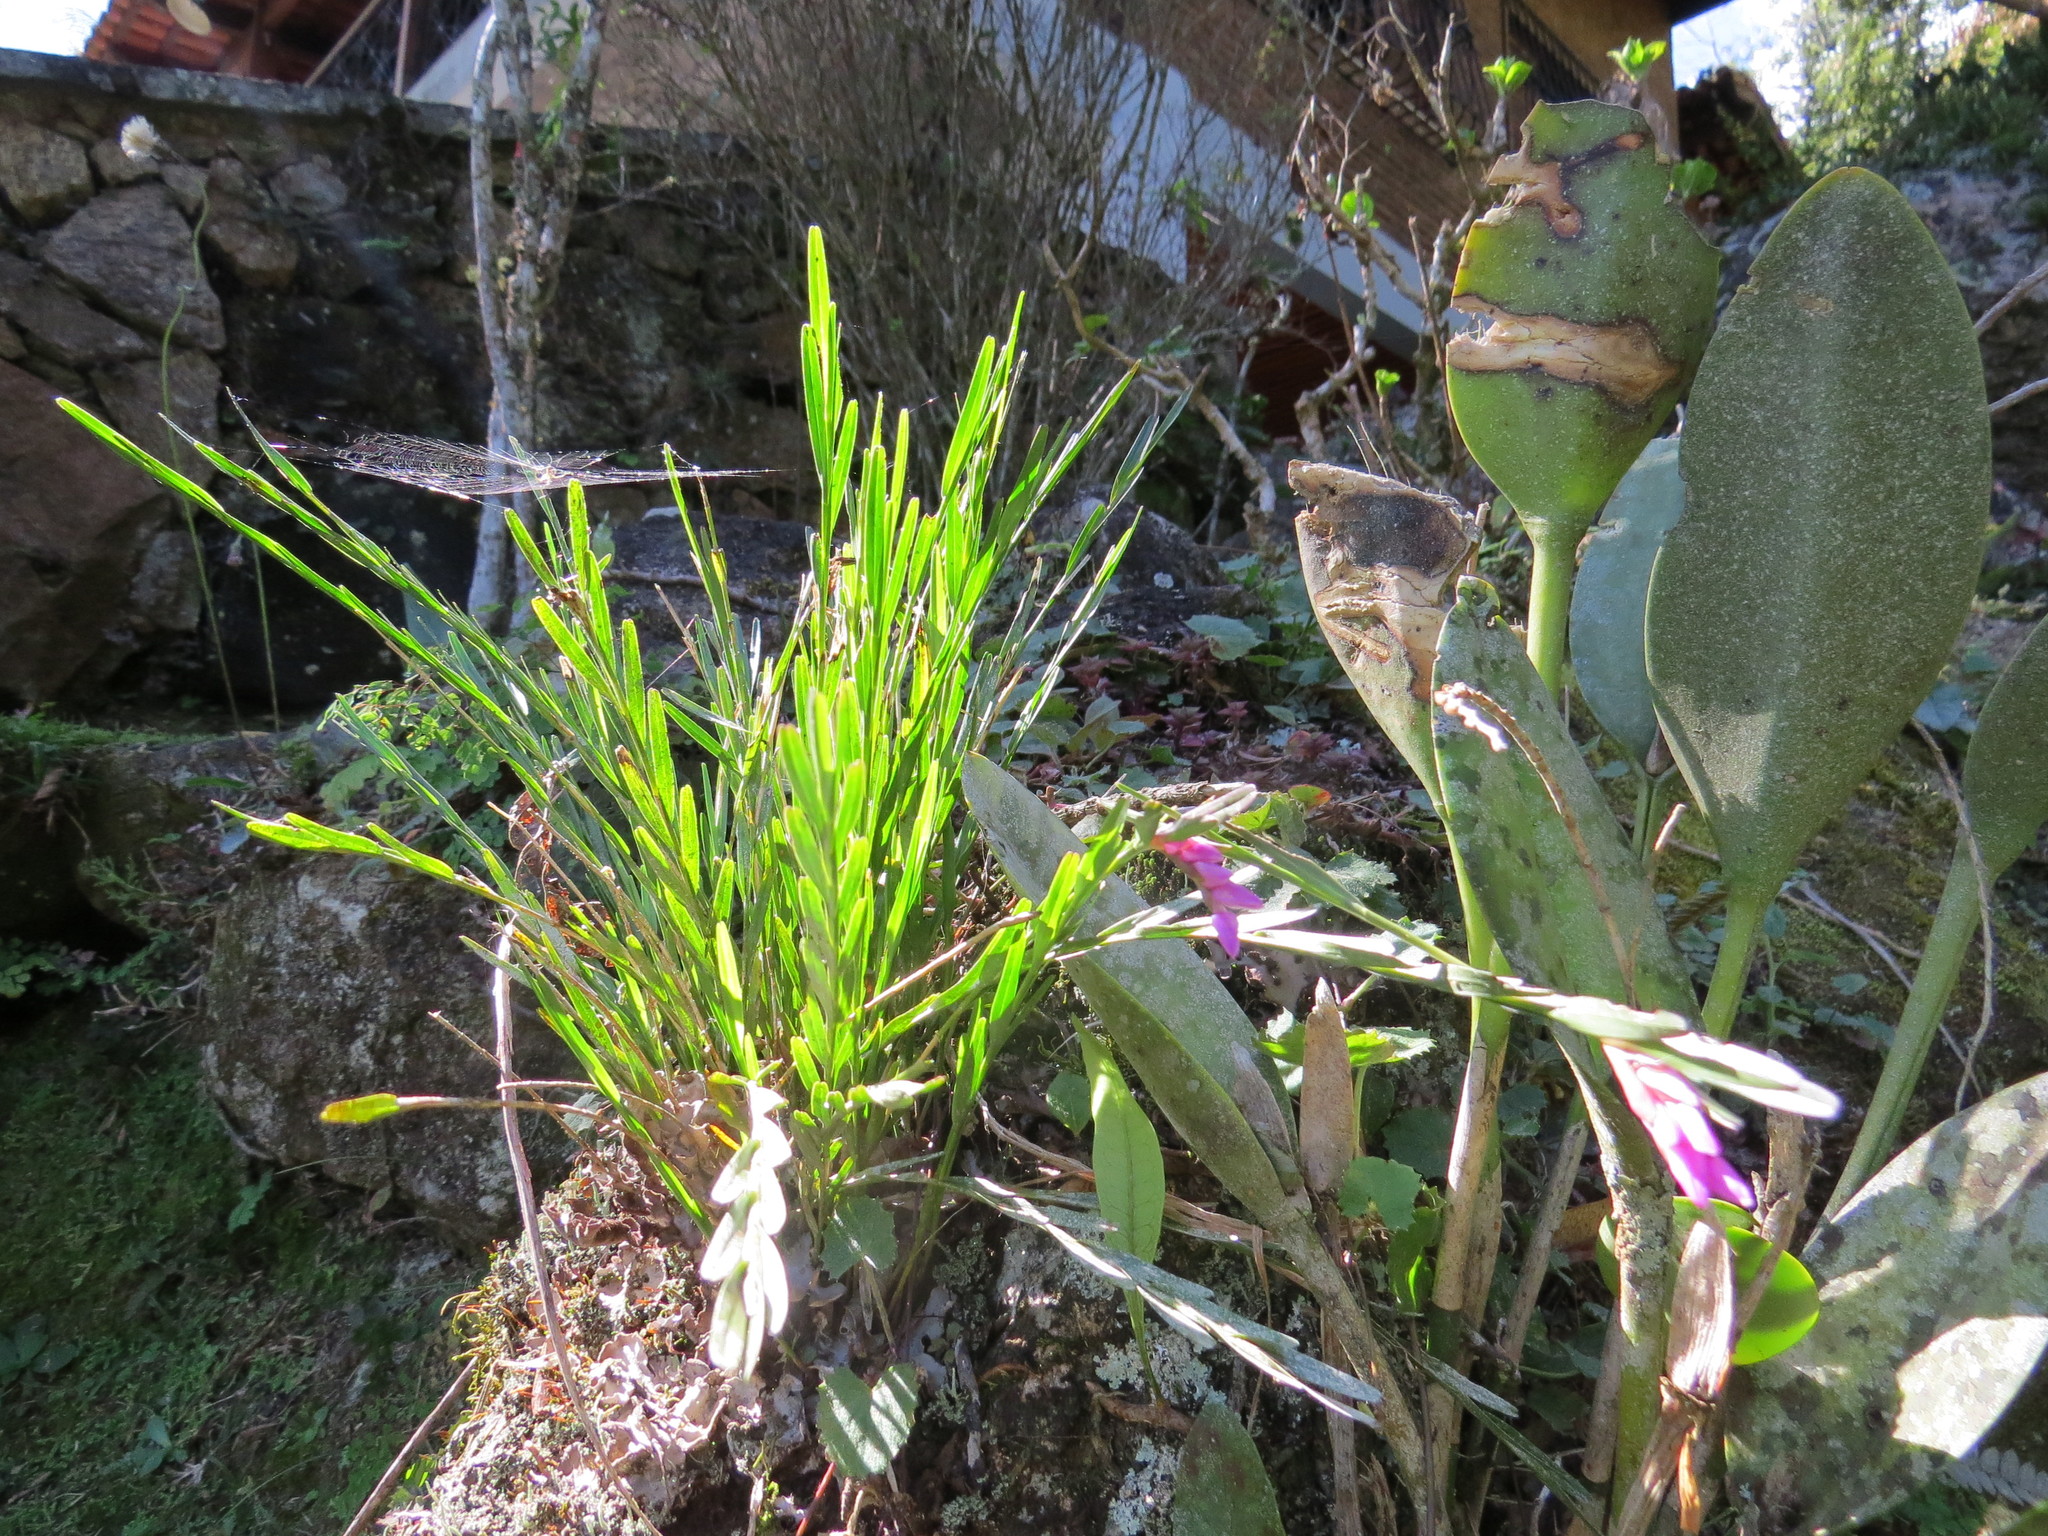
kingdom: Plantae
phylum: Tracheophyta
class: Liliopsida
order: Asparagales
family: Orchidaceae
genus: Isochilus
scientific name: Isochilus linearis
